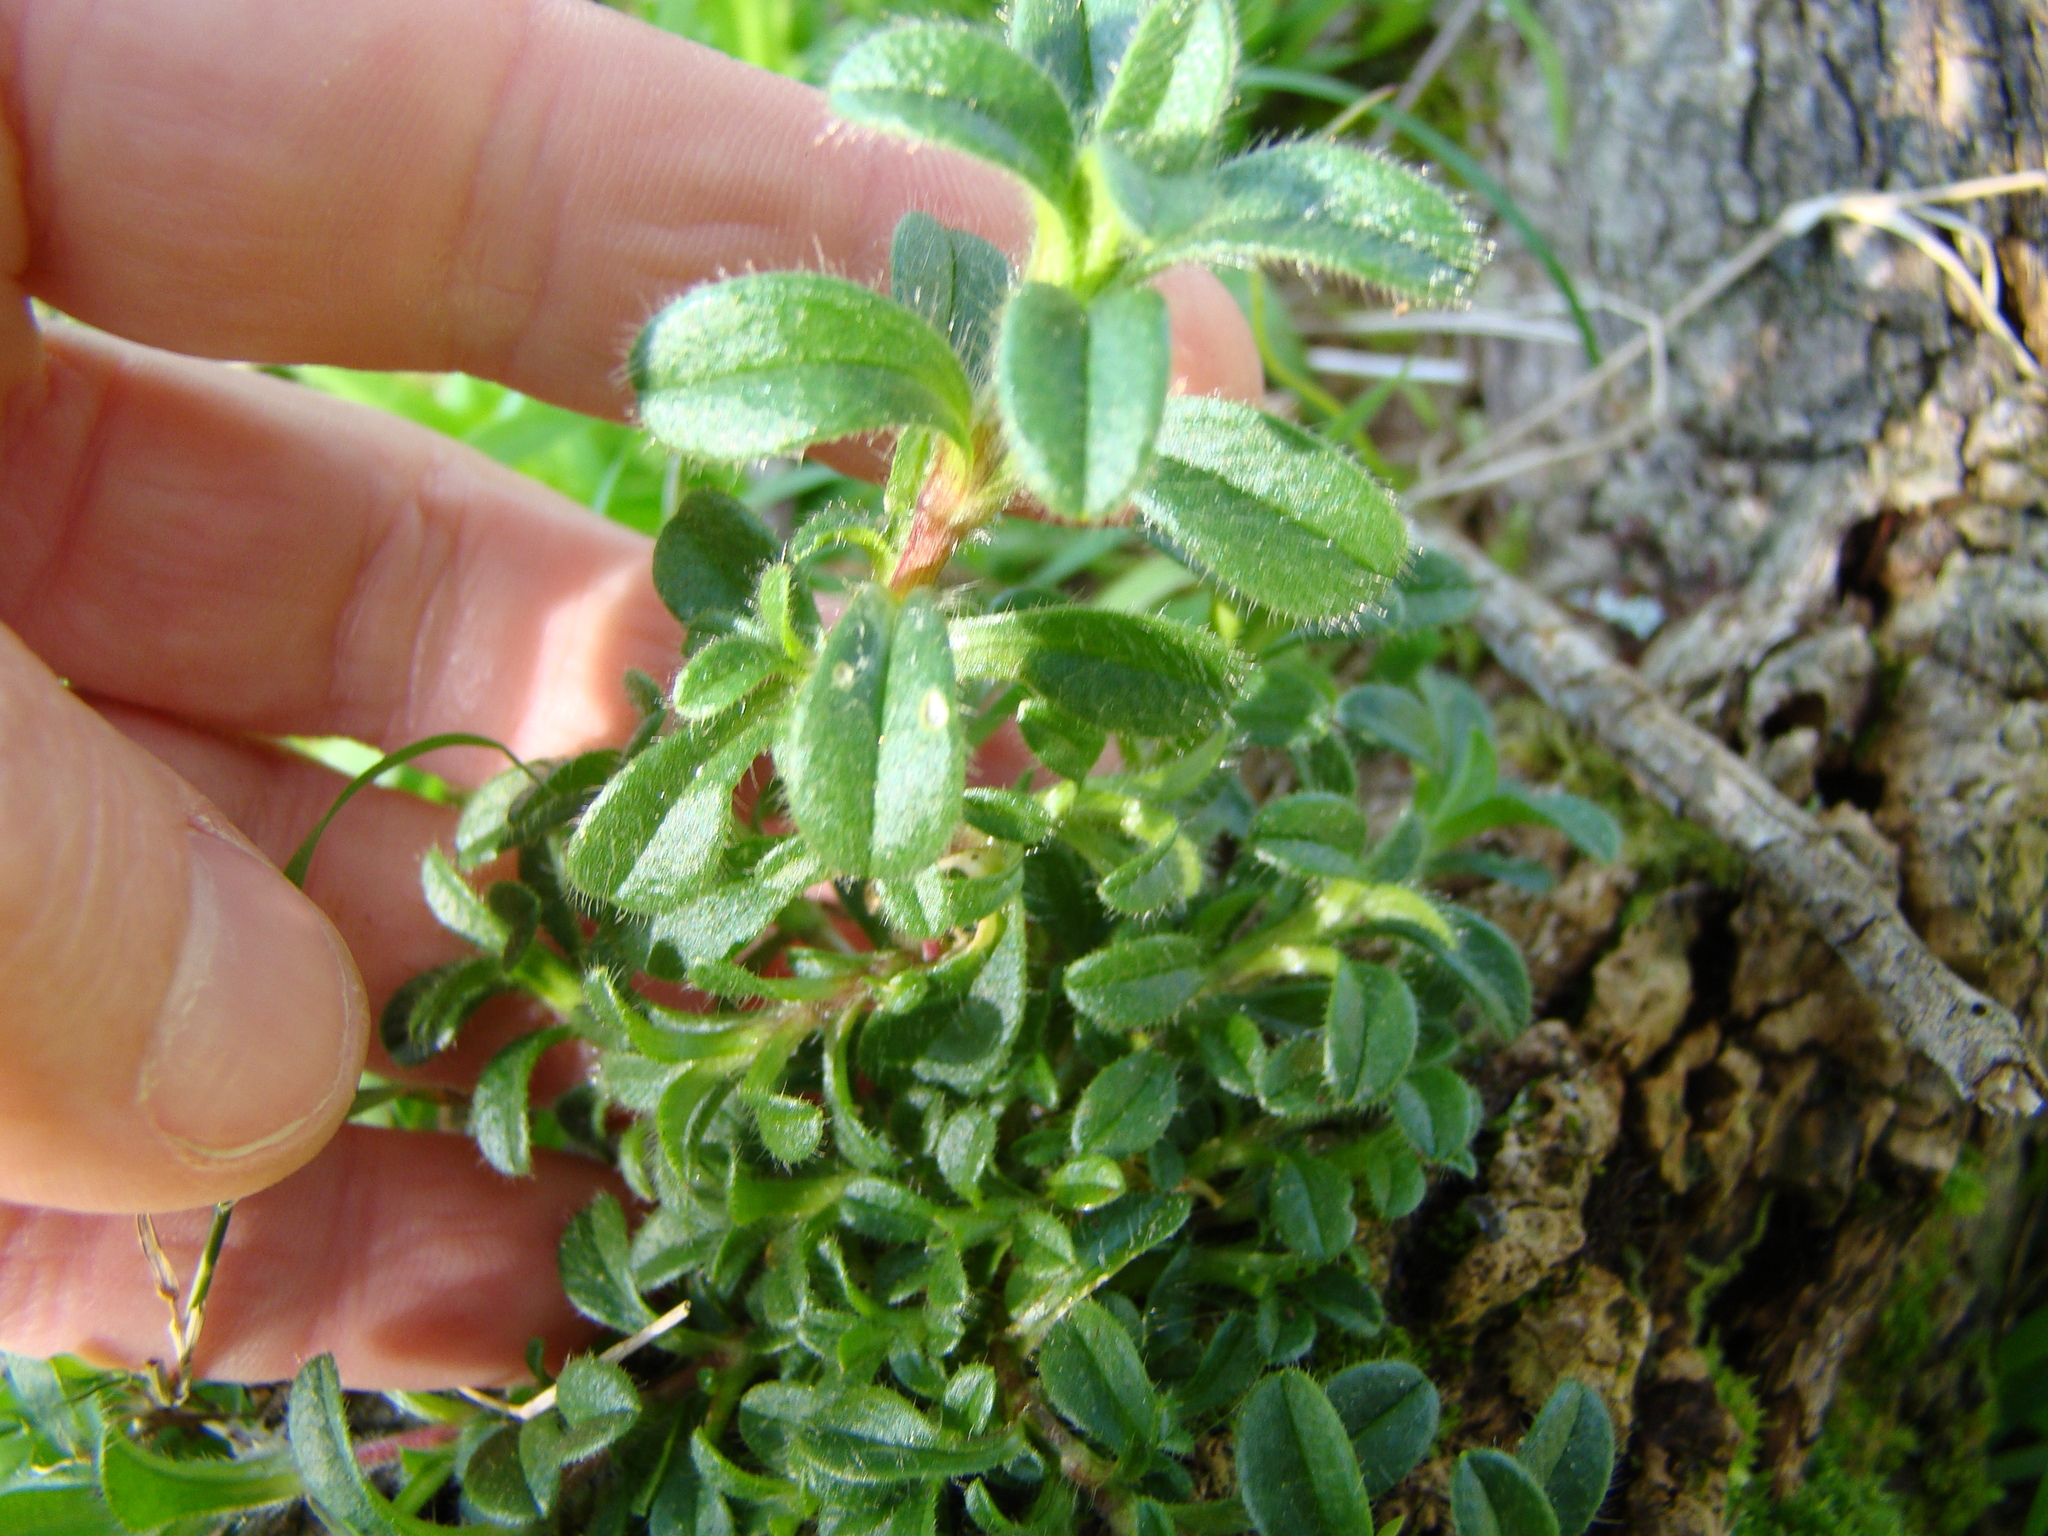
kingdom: Plantae
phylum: Tracheophyta
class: Magnoliopsida
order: Caryophyllales
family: Caryophyllaceae
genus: Cerastium
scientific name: Cerastium fontanum
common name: Common mouse-ear
